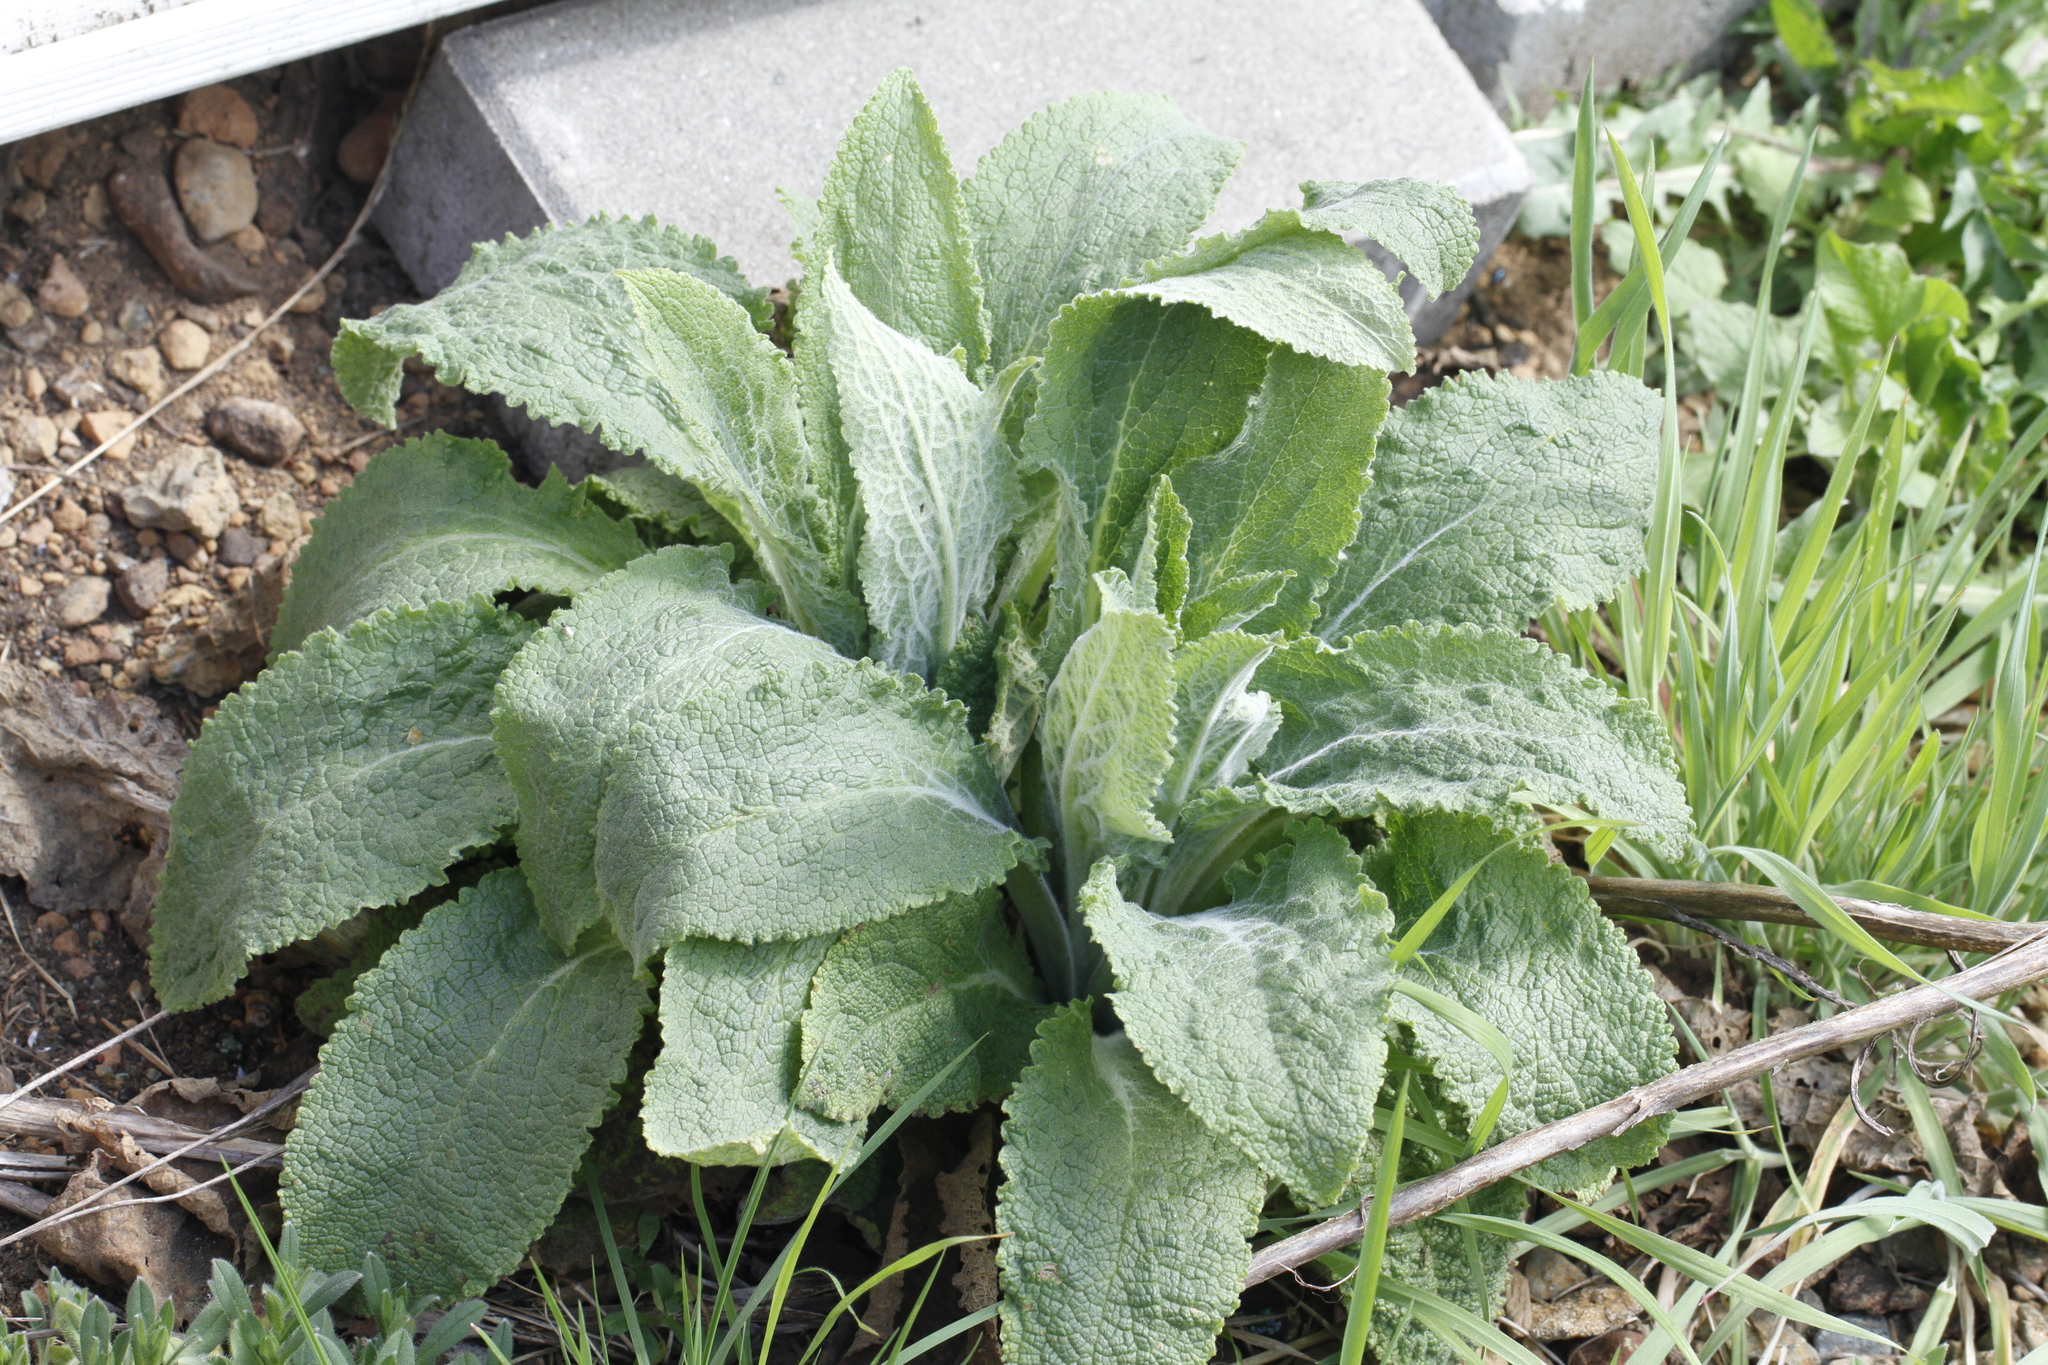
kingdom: Plantae
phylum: Tracheophyta
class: Magnoliopsida
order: Lamiales
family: Plantaginaceae
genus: Digitalis
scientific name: Digitalis purpurea
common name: Foxglove
